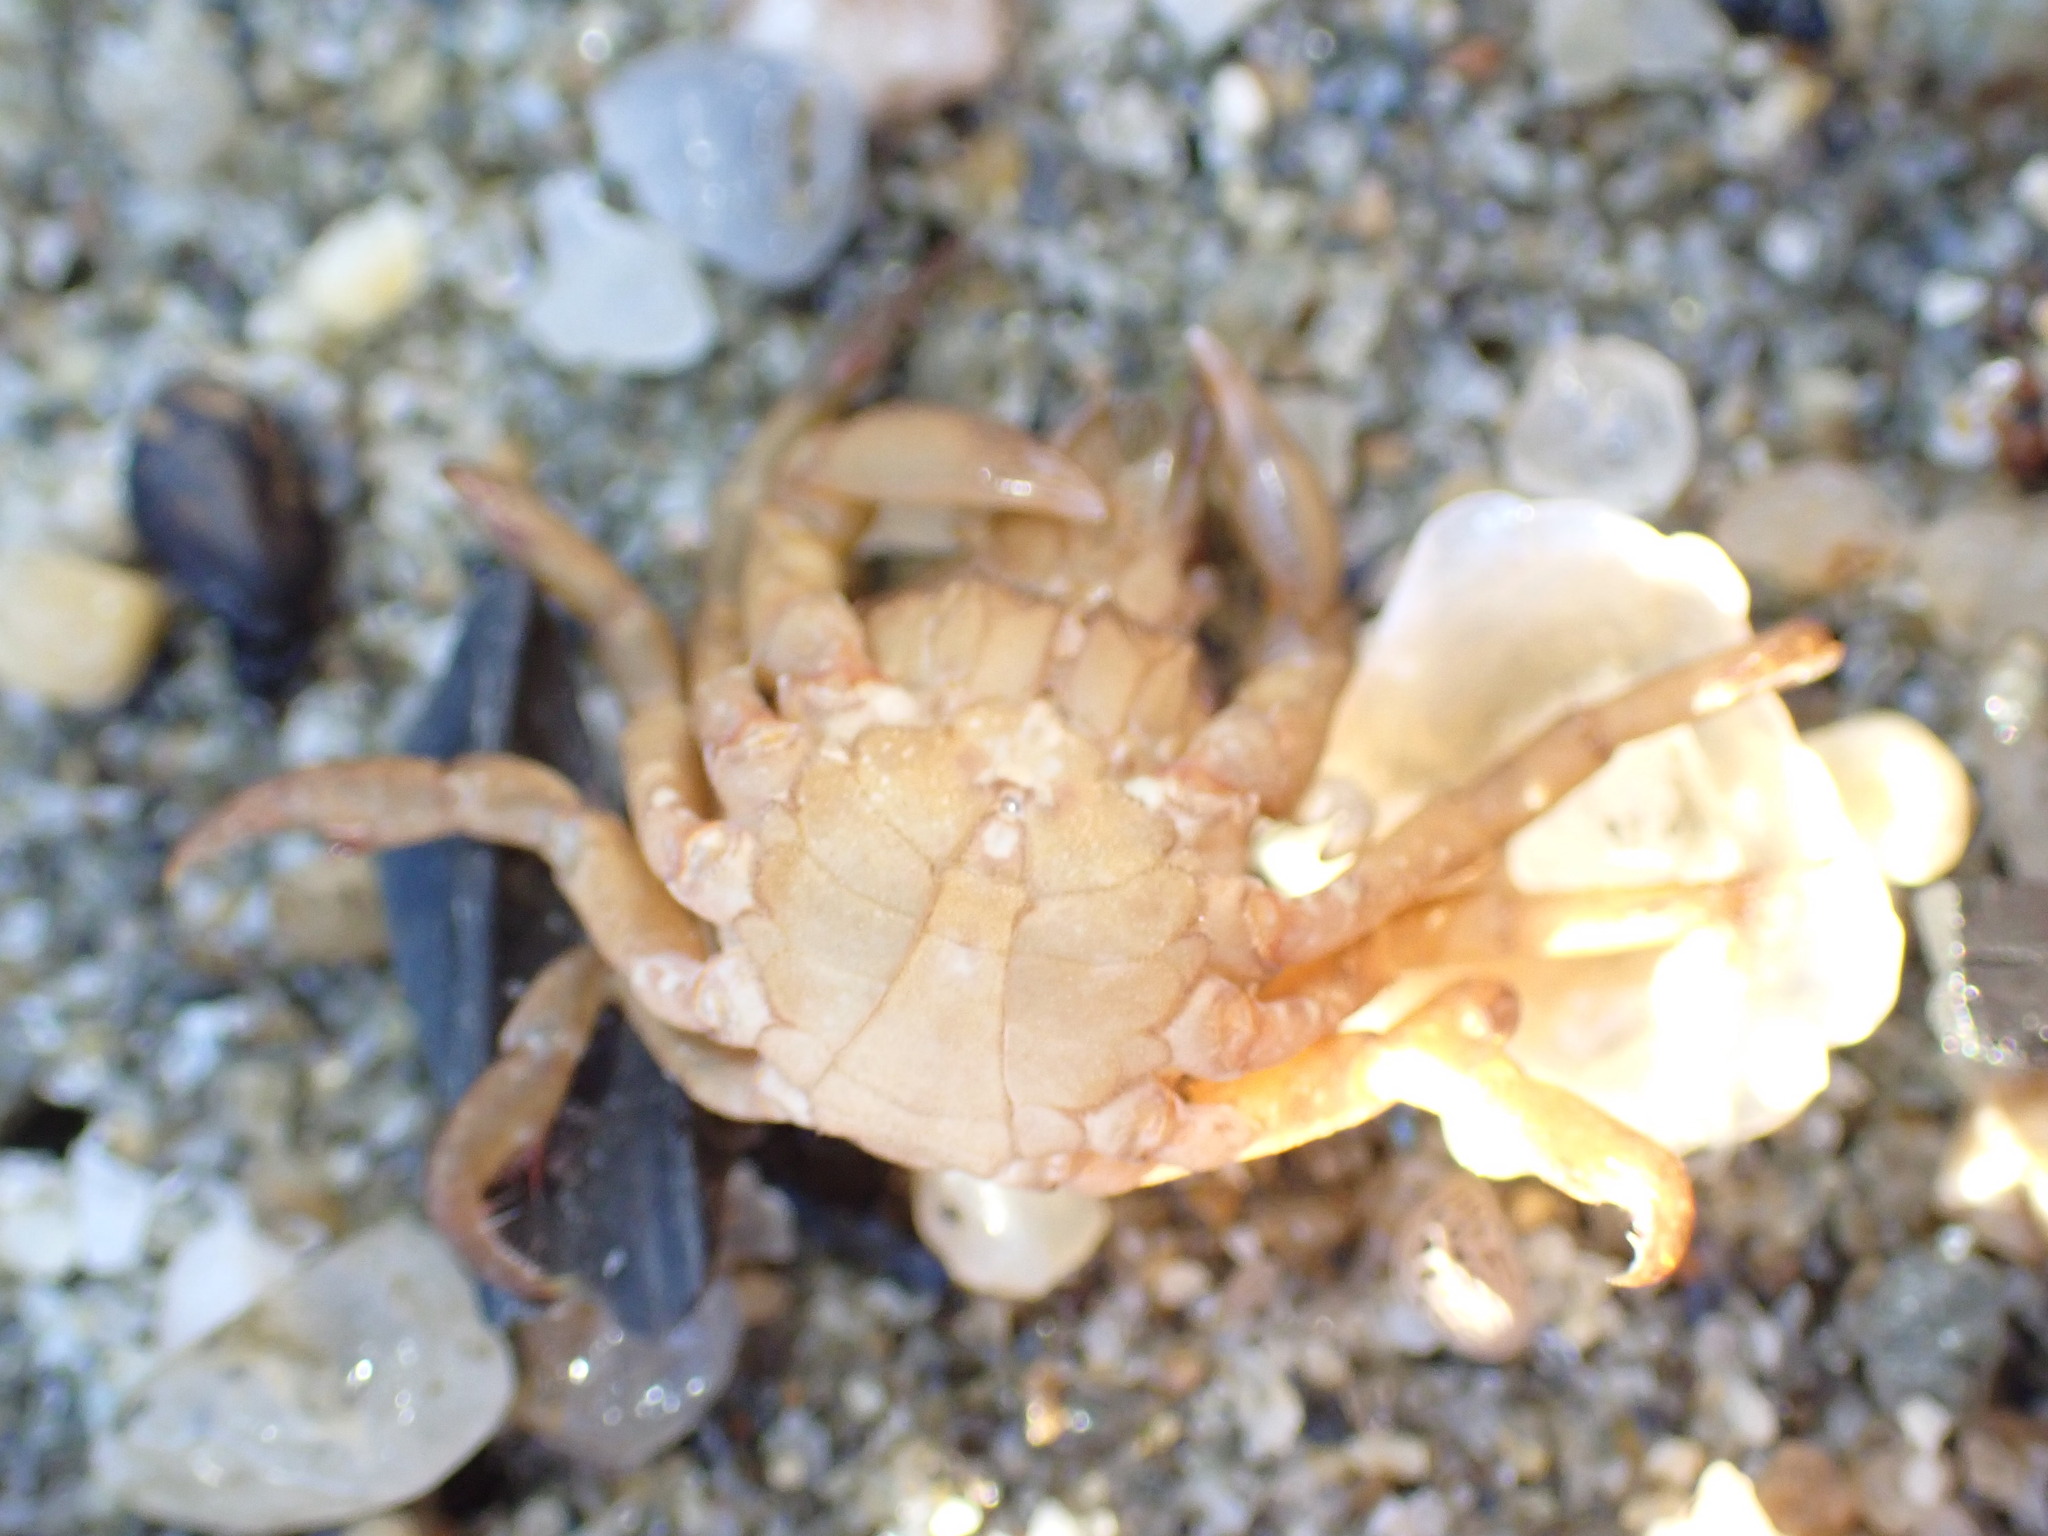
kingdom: Animalia
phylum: Arthropoda
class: Malacostraca
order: Decapoda
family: Epialtidae
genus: Acanthonyx
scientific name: Acanthonyx lunulatus
